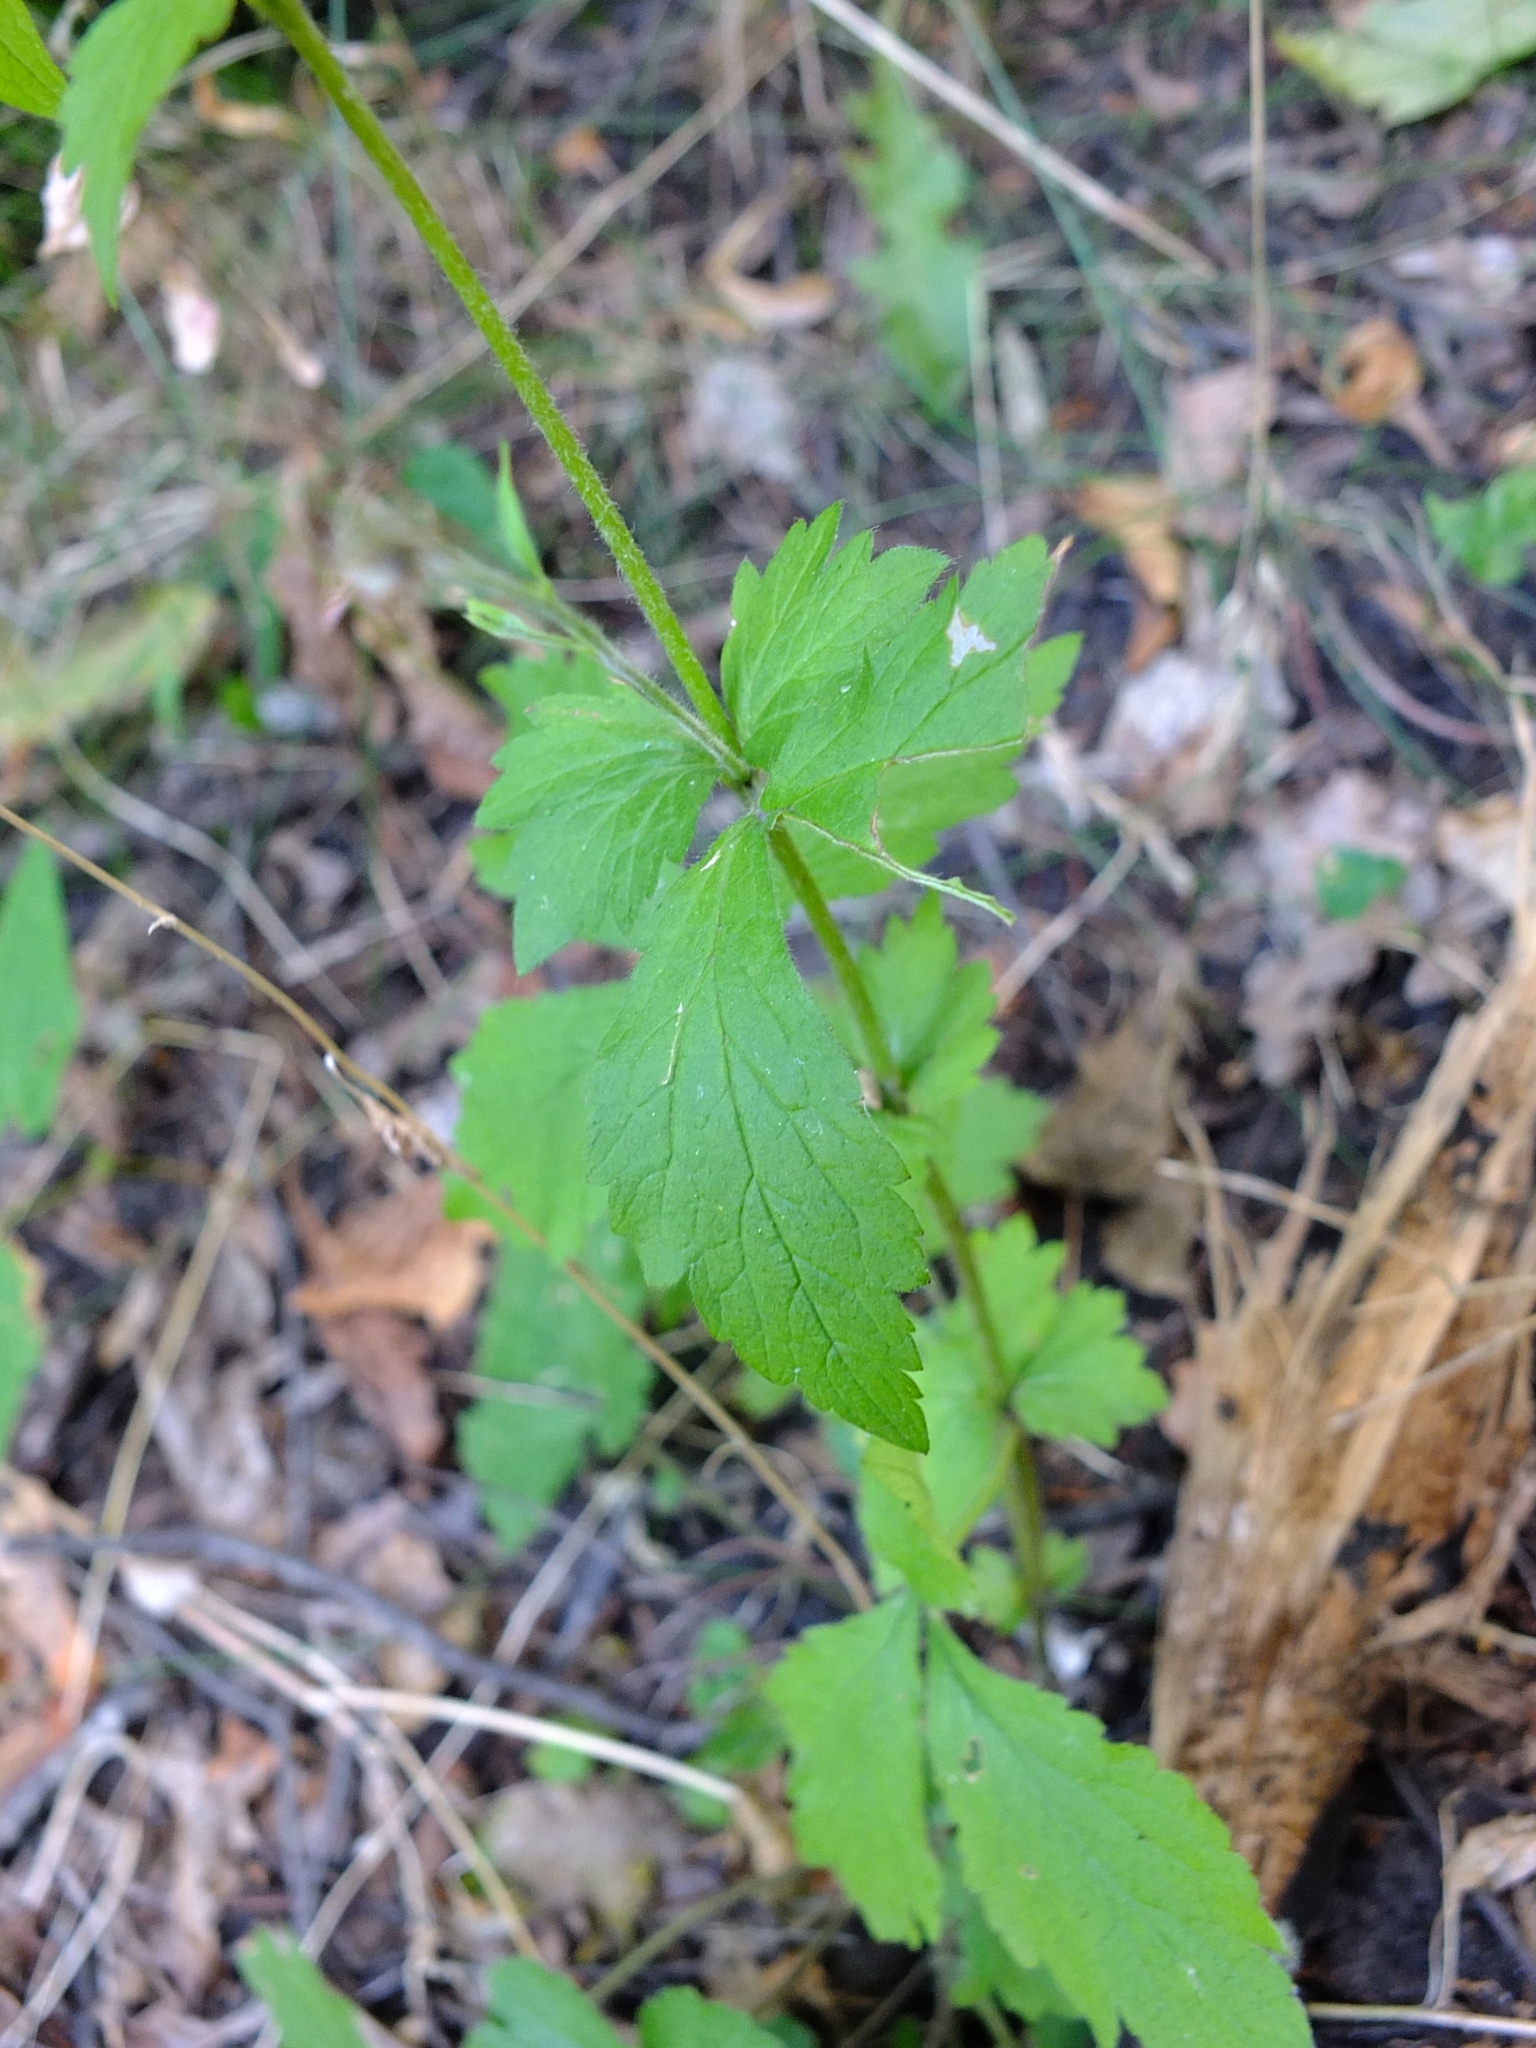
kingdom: Plantae
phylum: Tracheophyta
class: Magnoliopsida
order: Rosales
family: Rosaceae
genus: Geum
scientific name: Geum urbanum
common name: Wood avens
